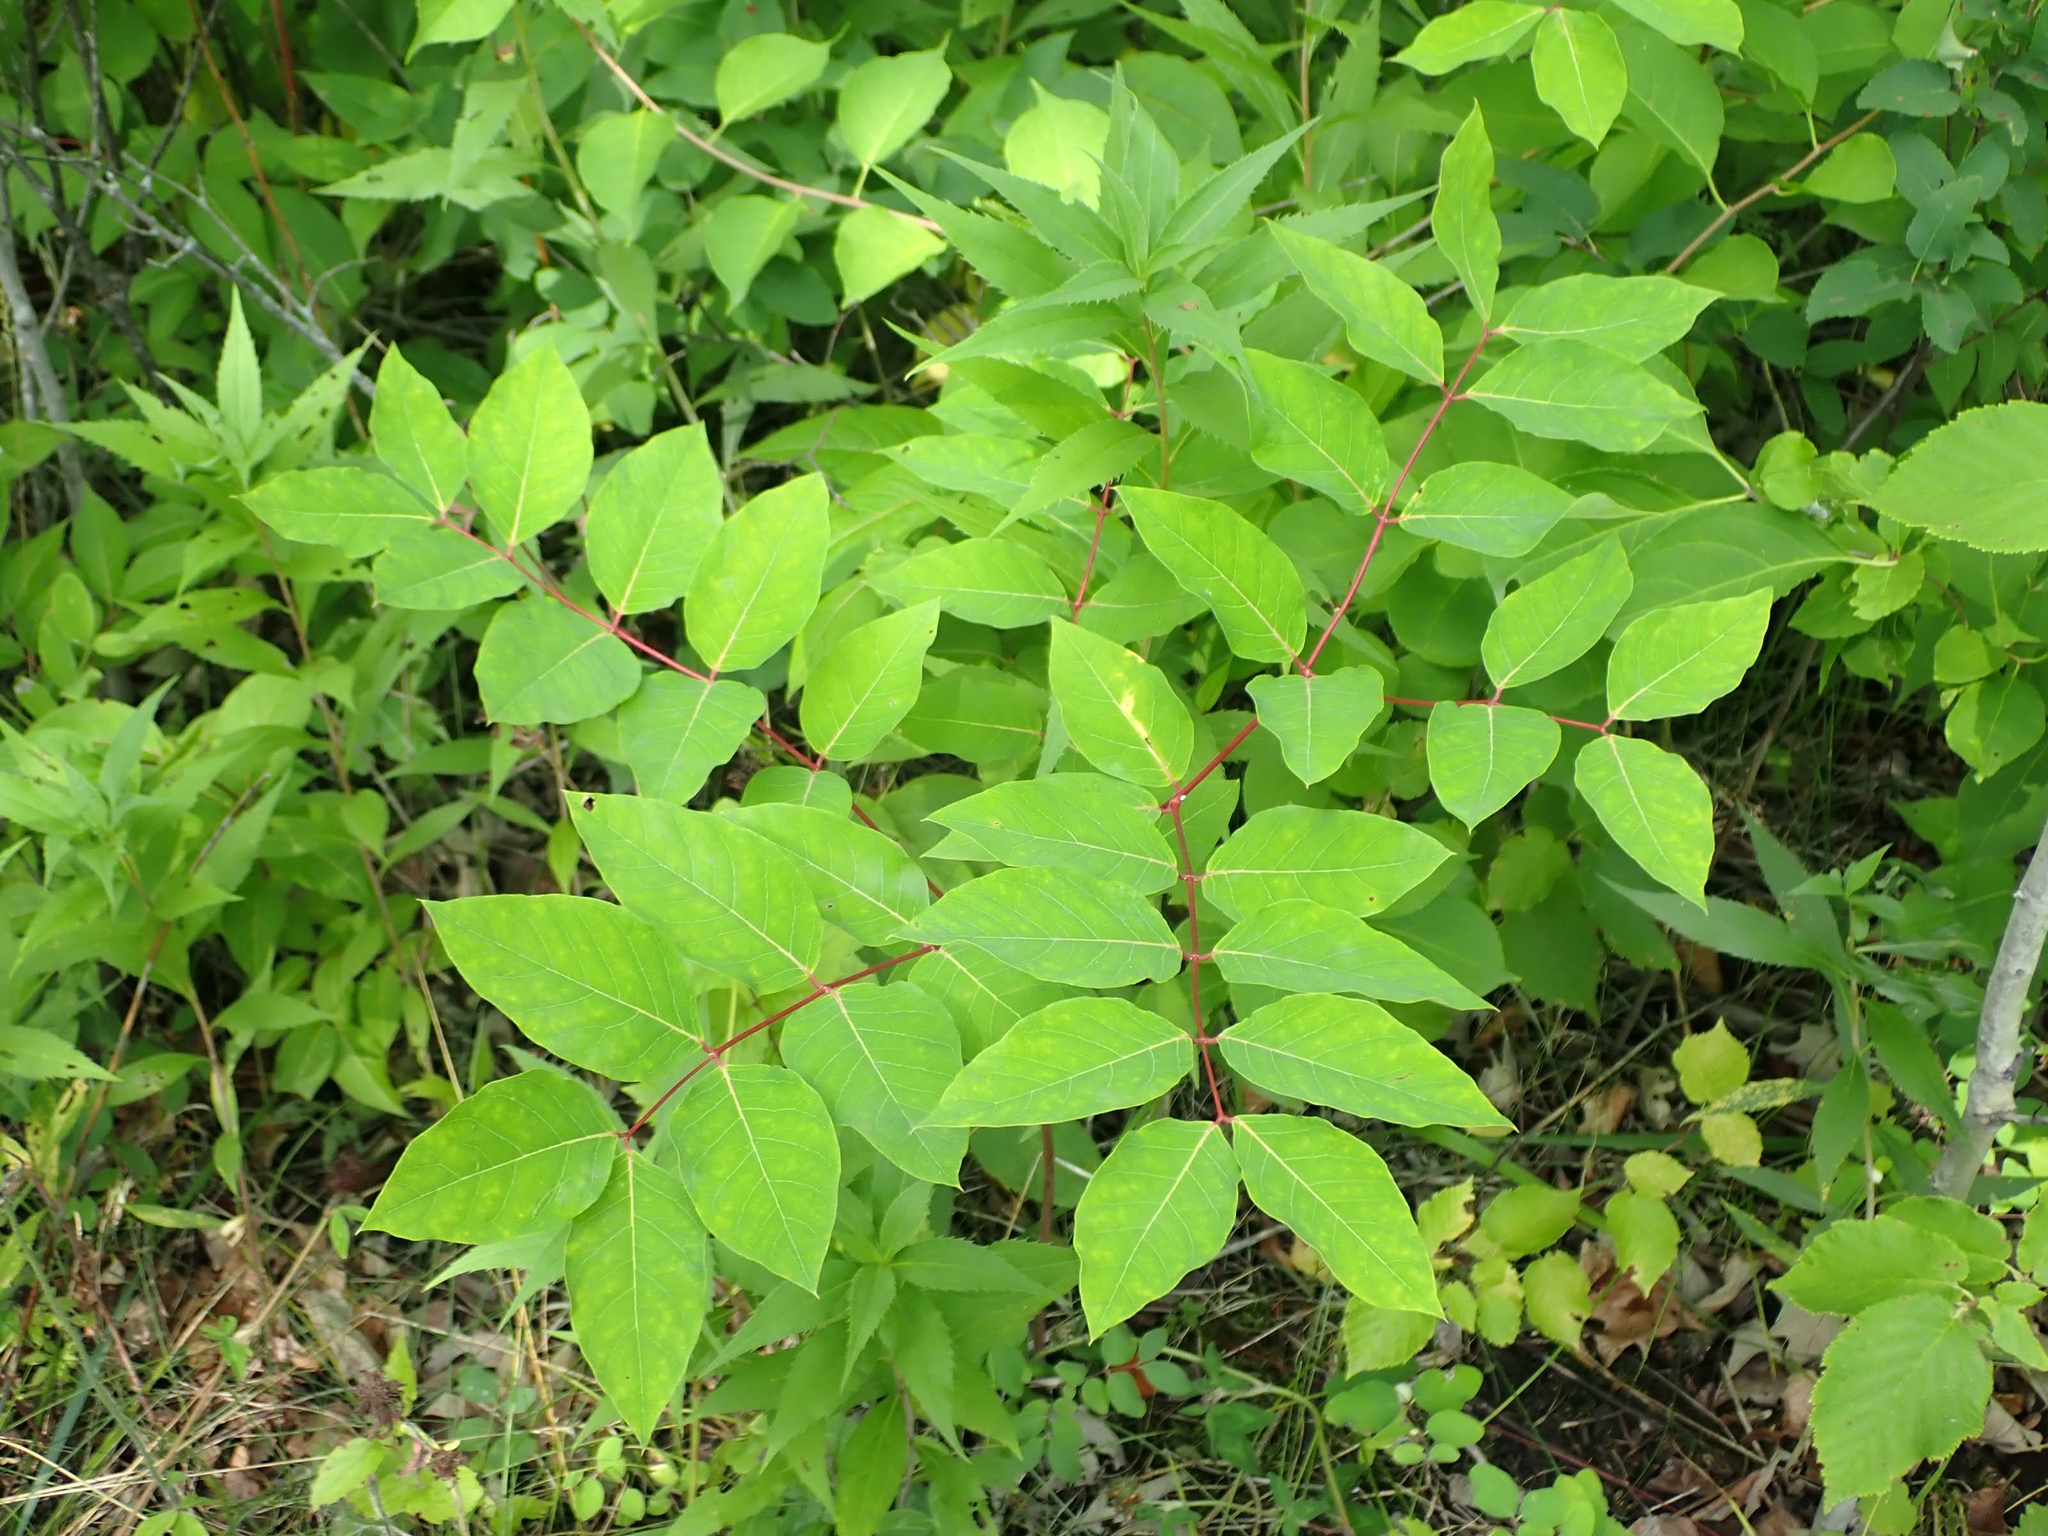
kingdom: Plantae
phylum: Tracheophyta
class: Magnoliopsida
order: Gentianales
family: Apocynaceae
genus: Apocynum
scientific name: Apocynum androsaemifolium
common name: Spreading dogbane
